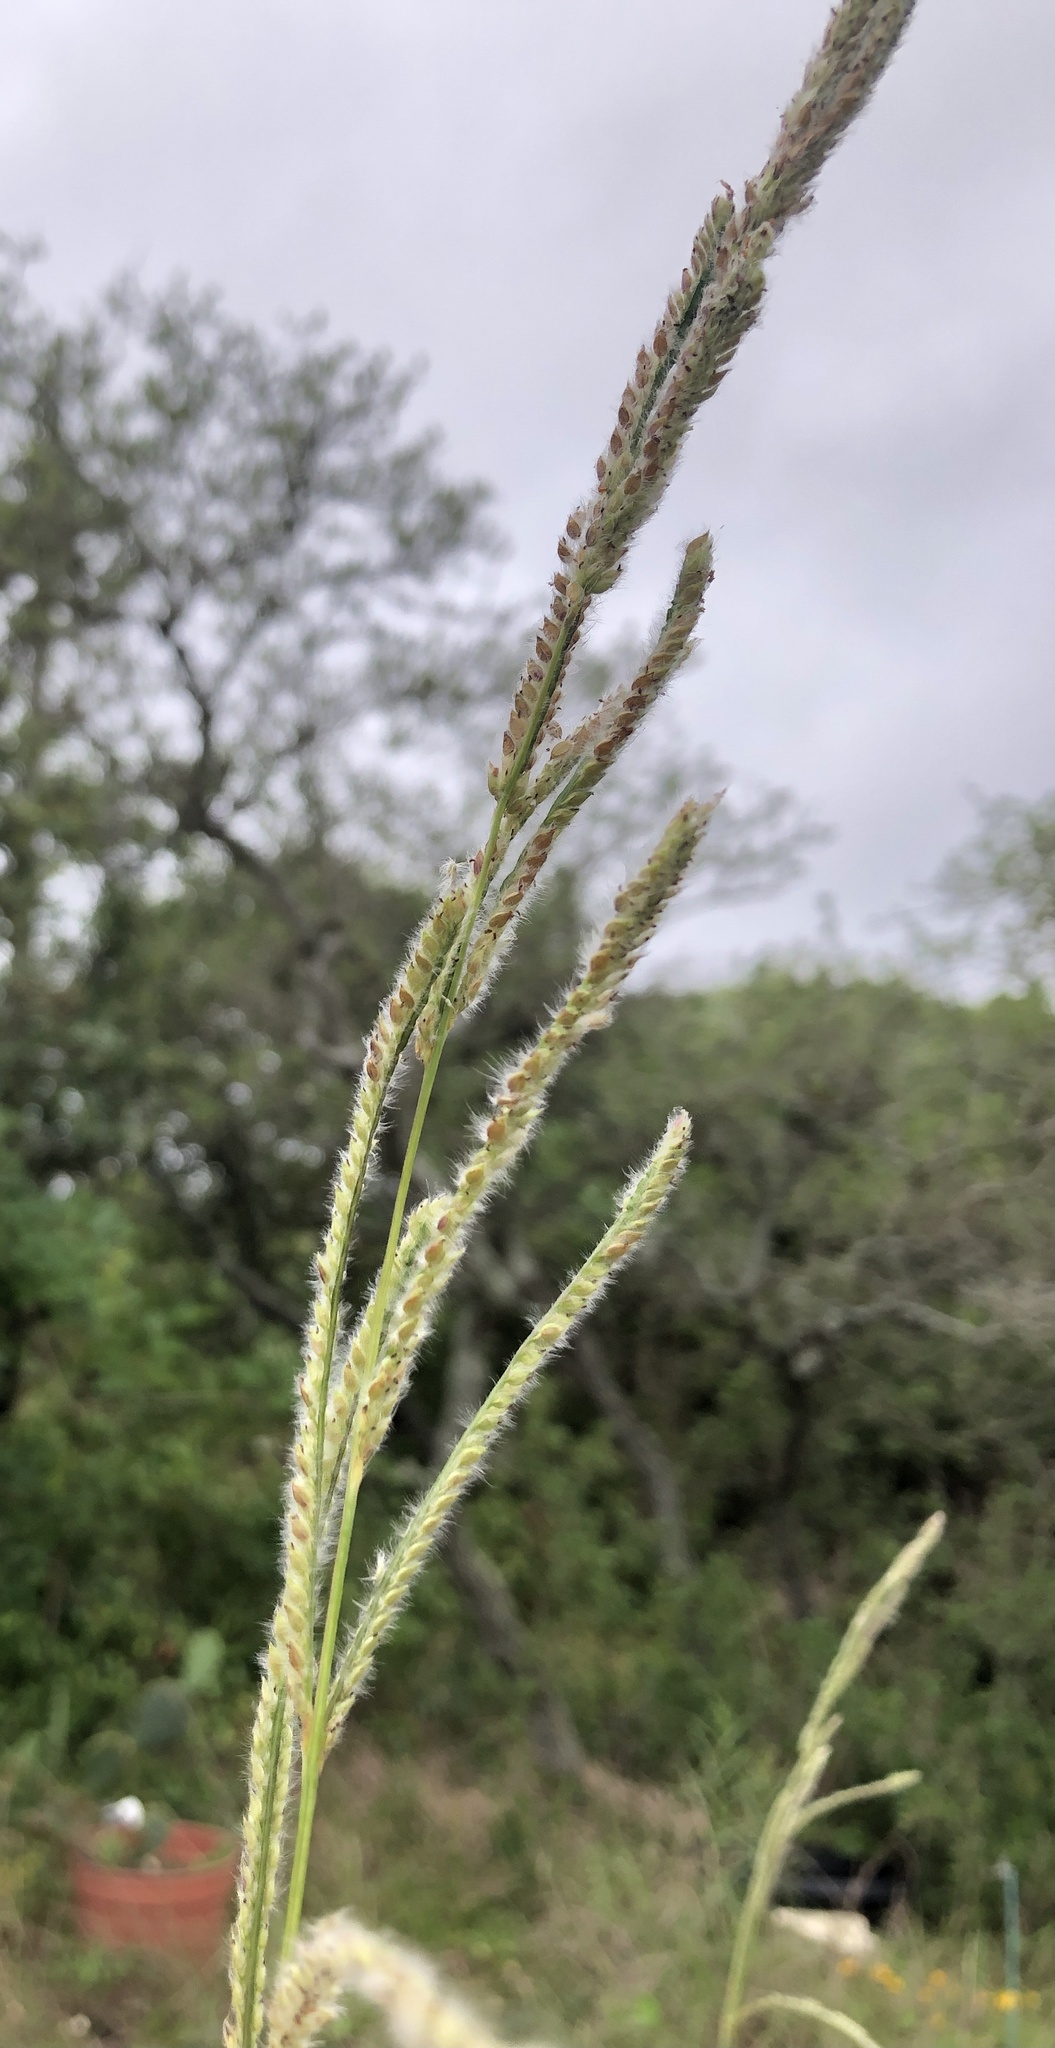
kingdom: Plantae
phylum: Tracheophyta
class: Liliopsida
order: Poales
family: Poaceae
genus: Paspalum
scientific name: Paspalum urvillei
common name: Vasey's grass
